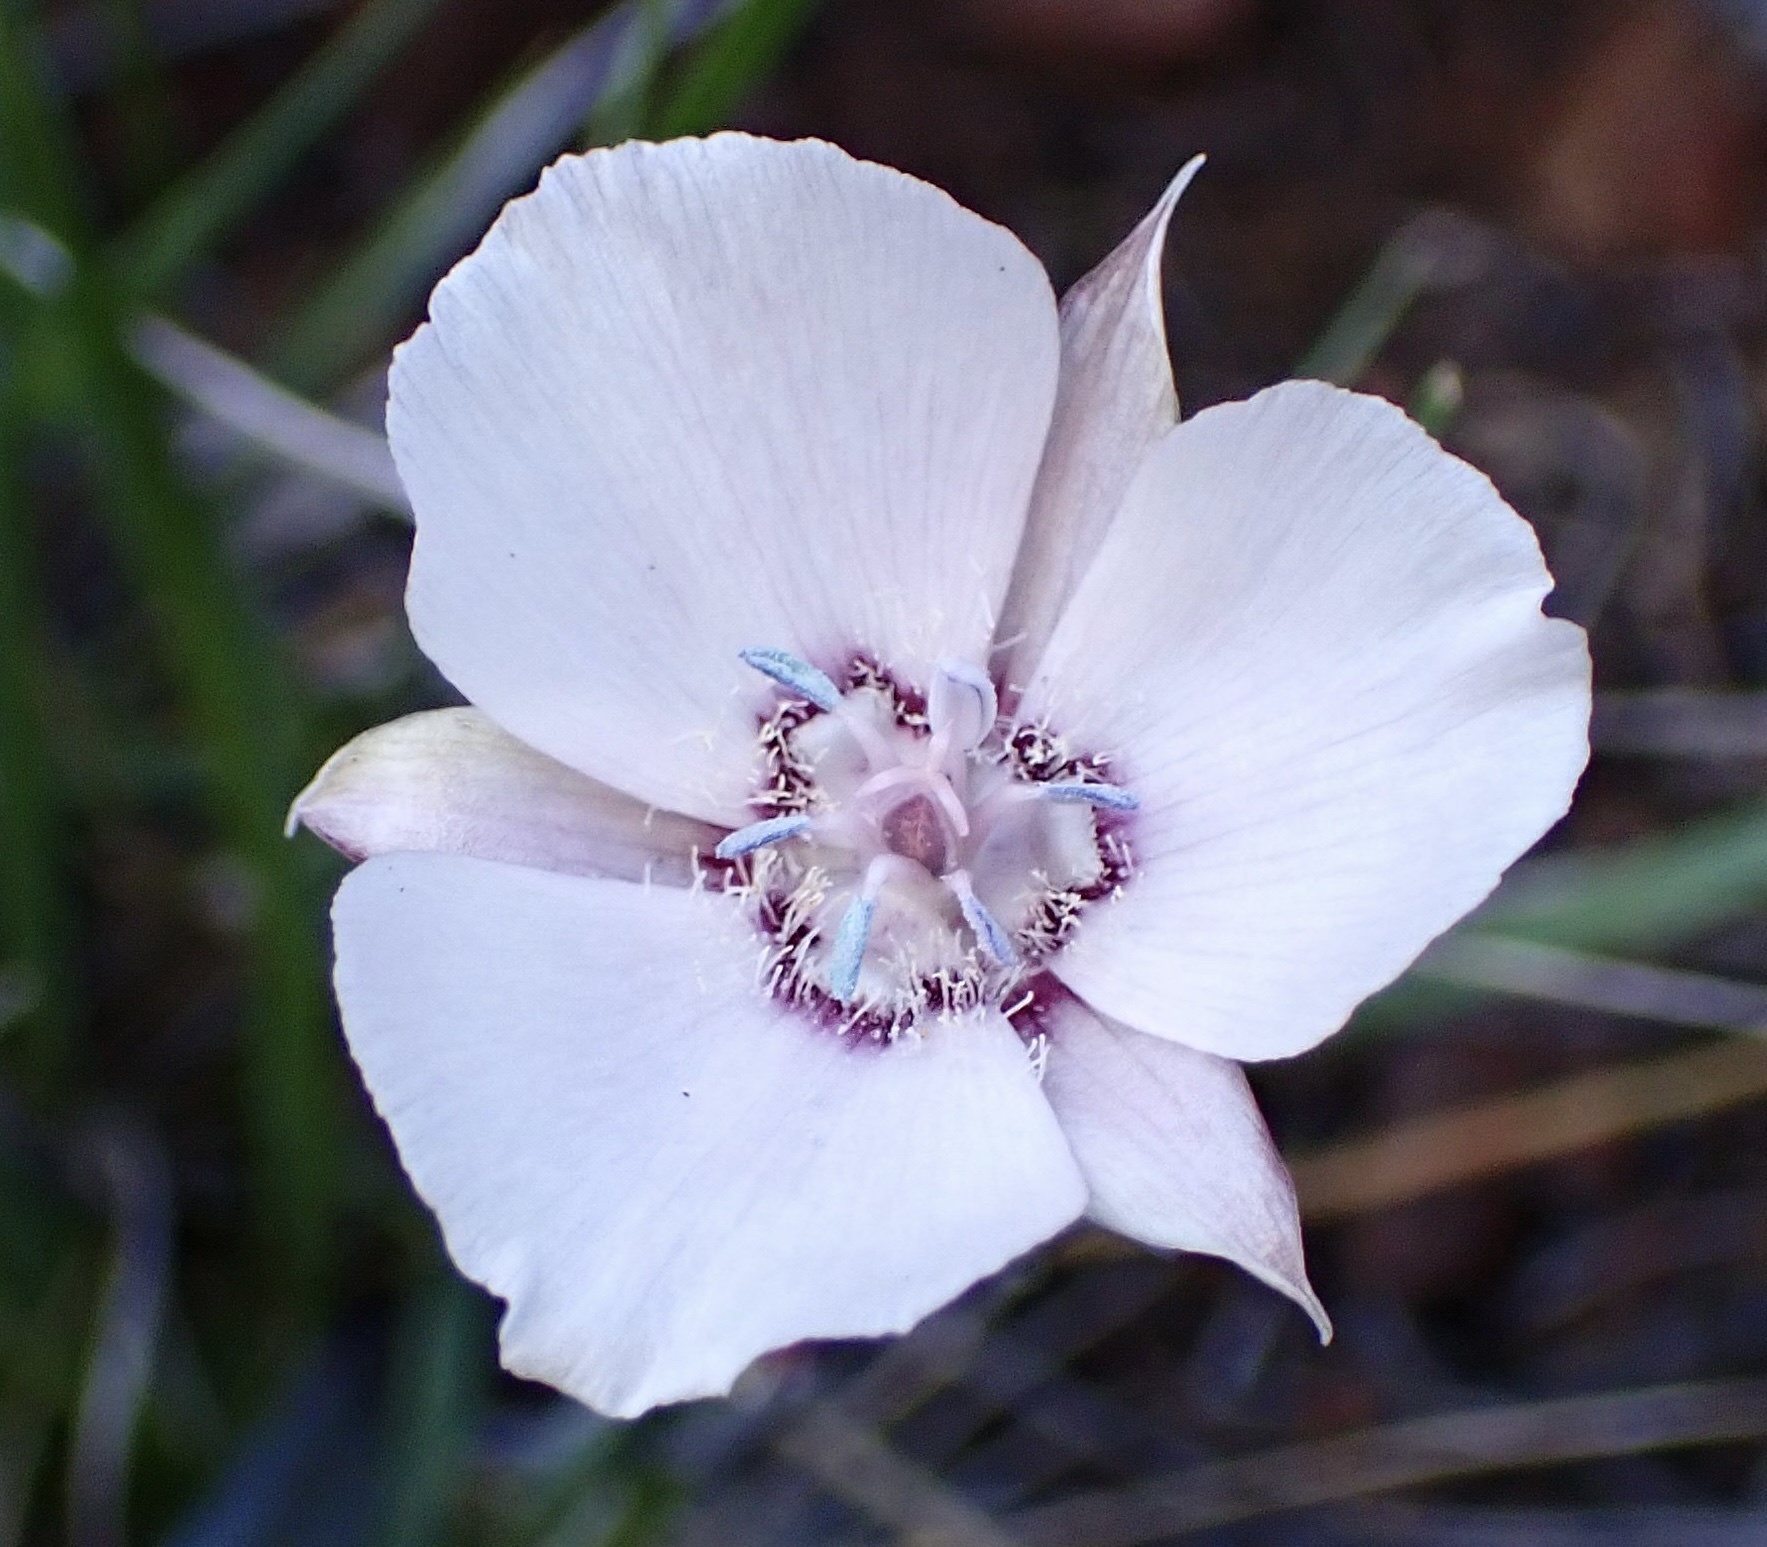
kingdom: Plantae
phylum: Tracheophyta
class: Liliopsida
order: Liliales
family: Liliaceae
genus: Calochortus
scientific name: Calochortus umbellatus
